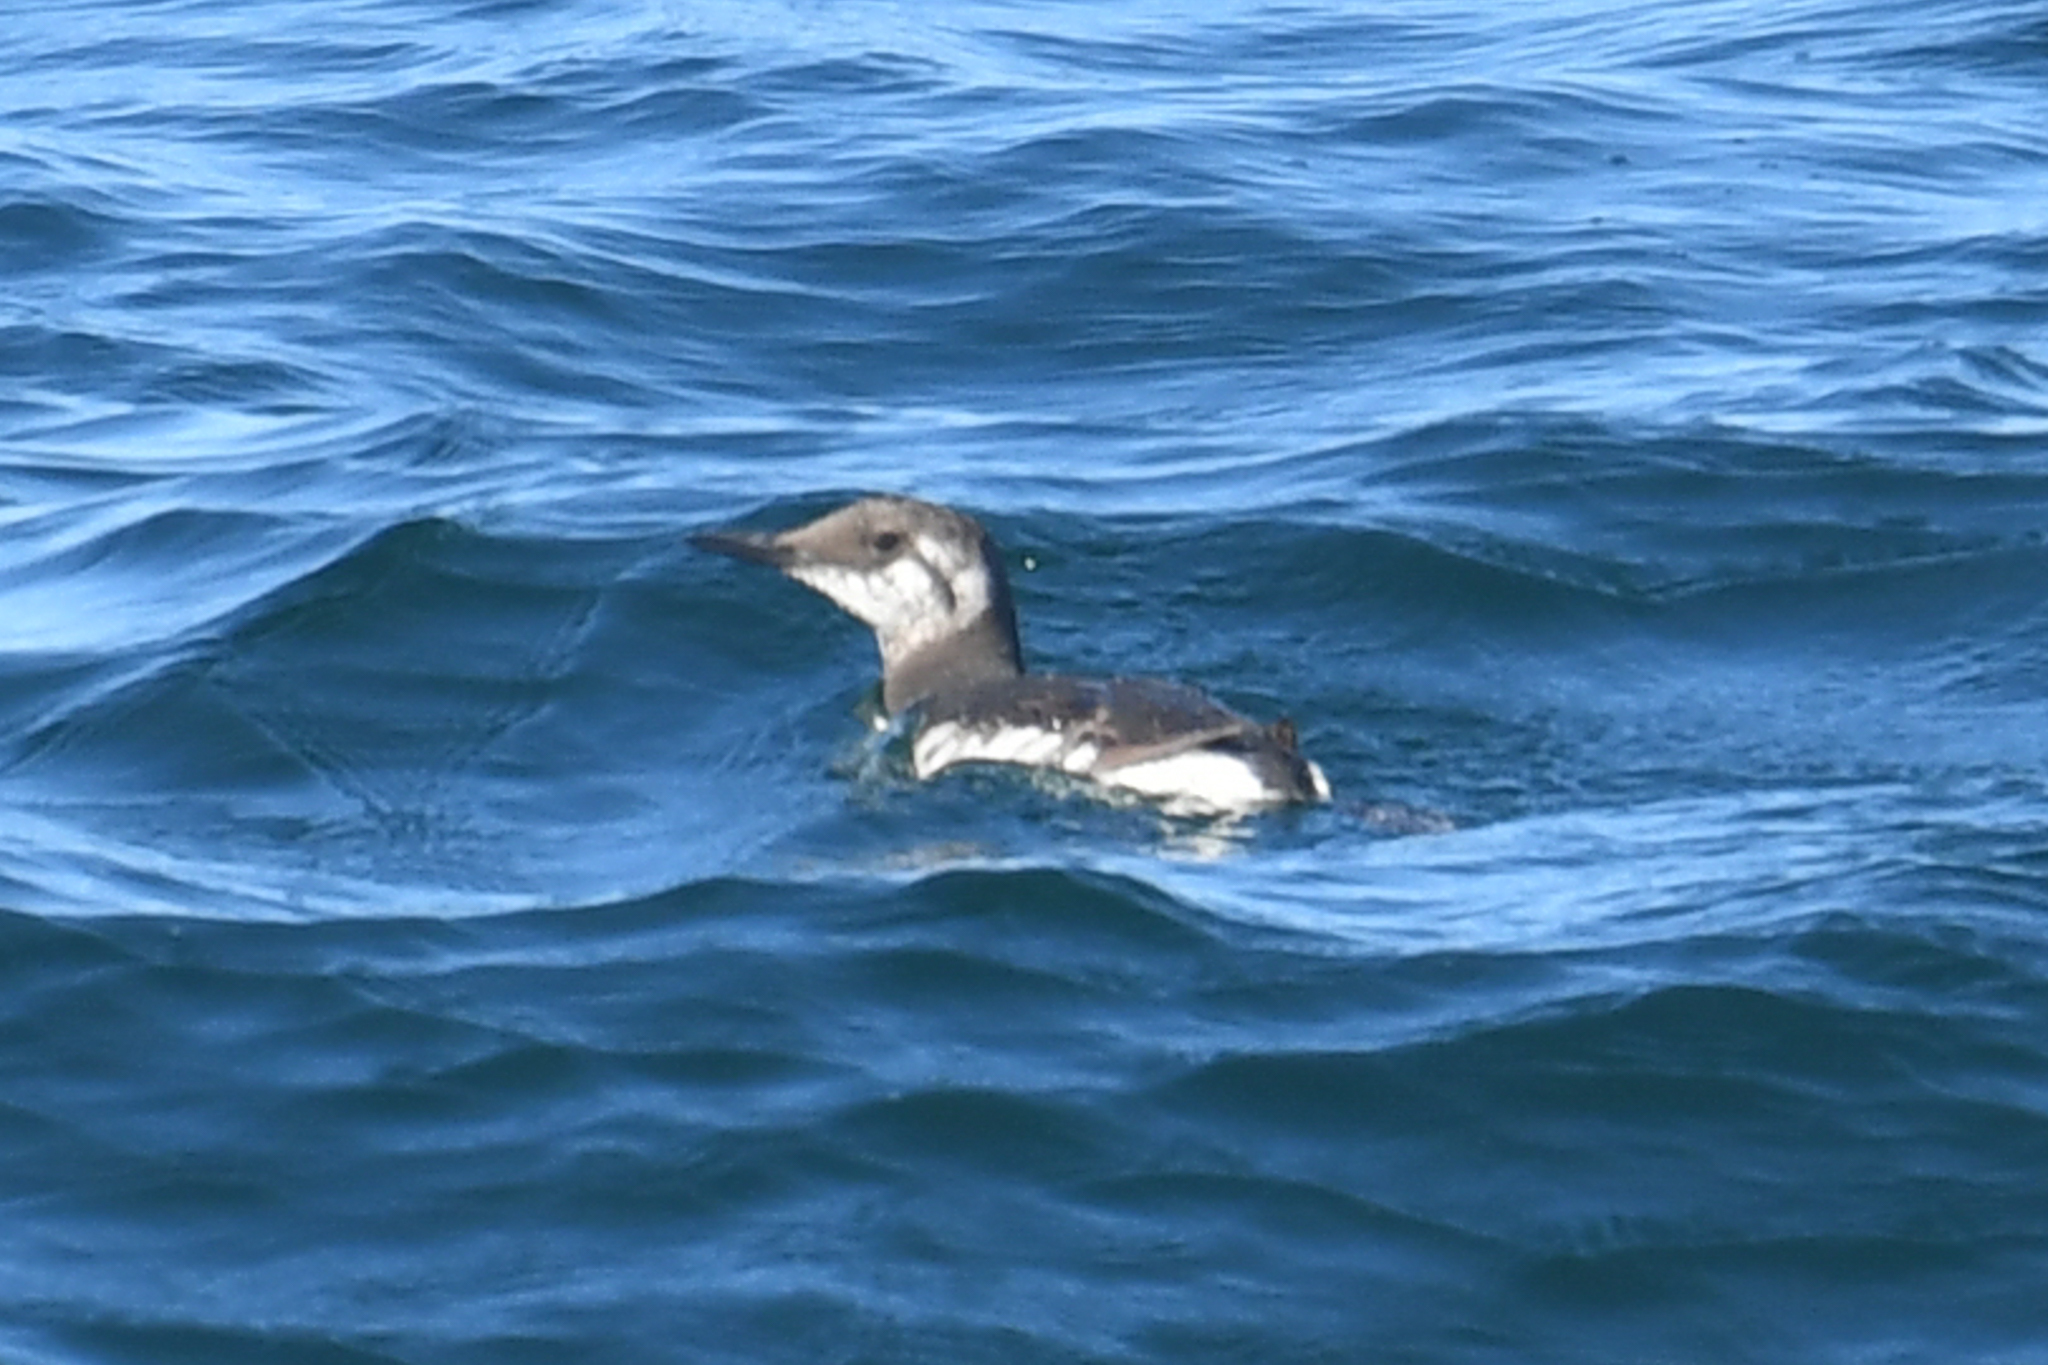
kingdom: Animalia
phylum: Chordata
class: Aves
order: Charadriiformes
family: Alcidae
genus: Uria
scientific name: Uria aalge
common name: Common murre
